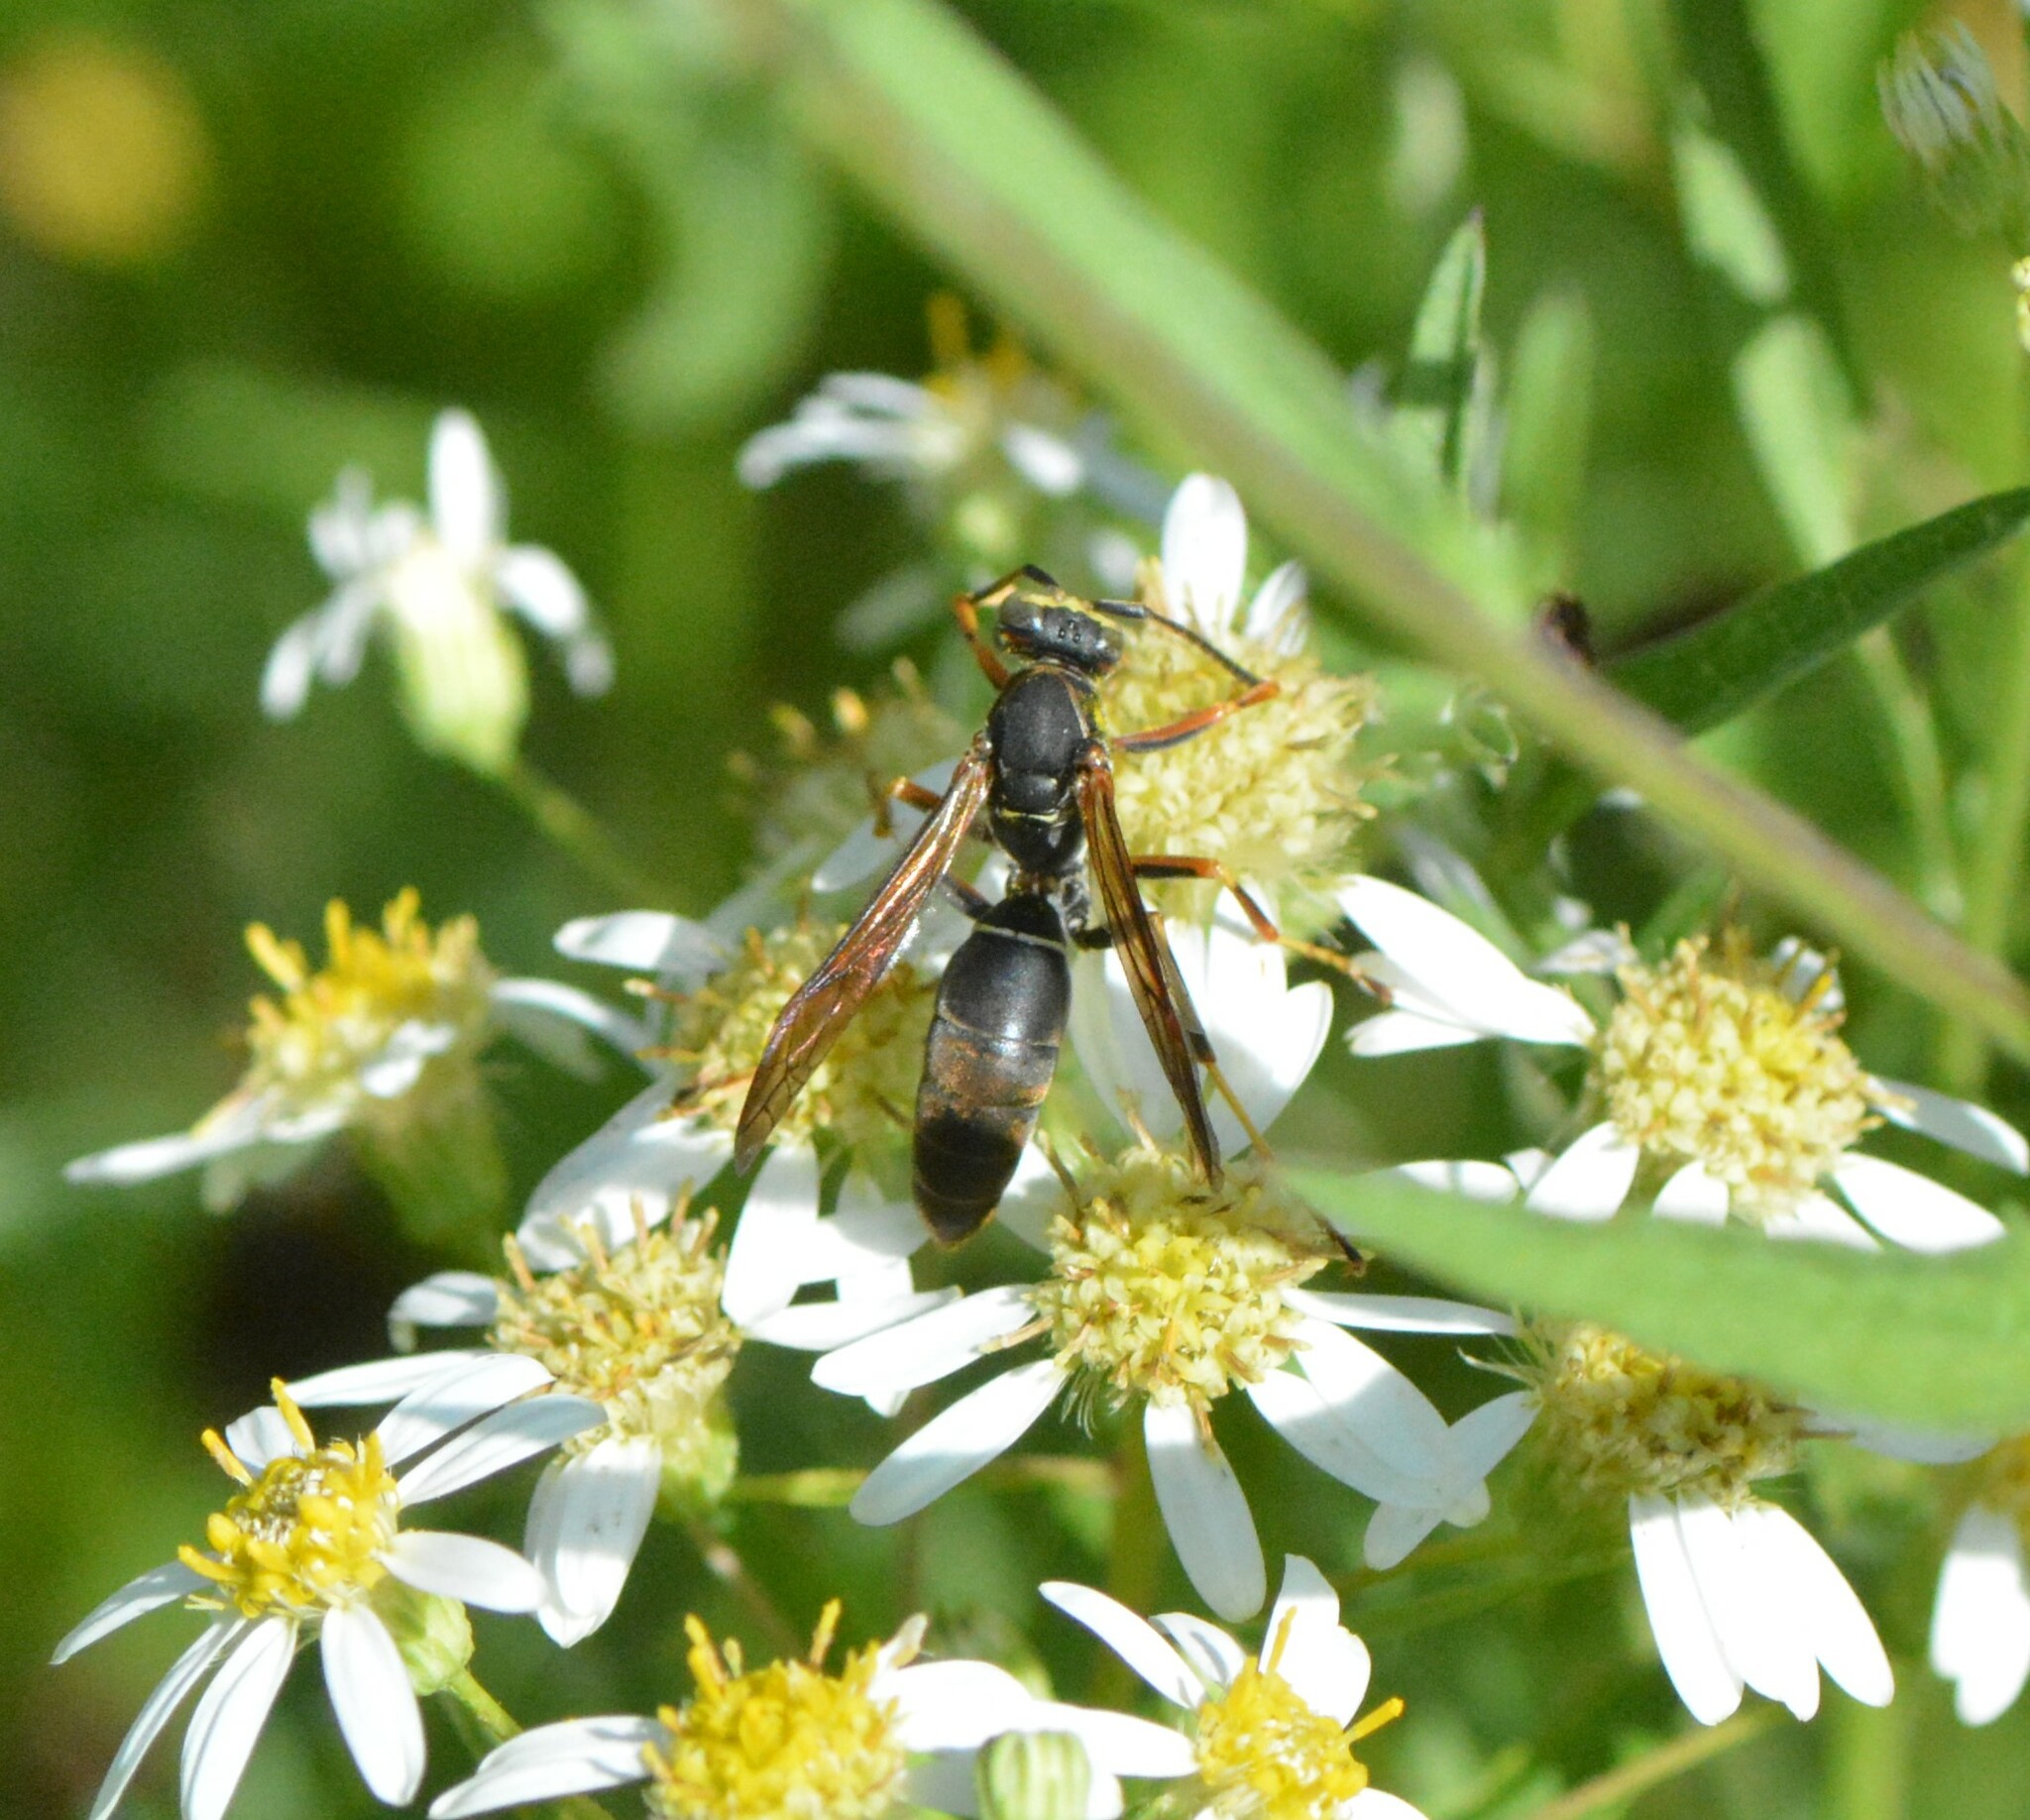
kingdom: Animalia
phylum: Arthropoda
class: Insecta
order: Hymenoptera
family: Eumenidae
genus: Polistes
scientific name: Polistes fuscatus
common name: Dark paper wasp
